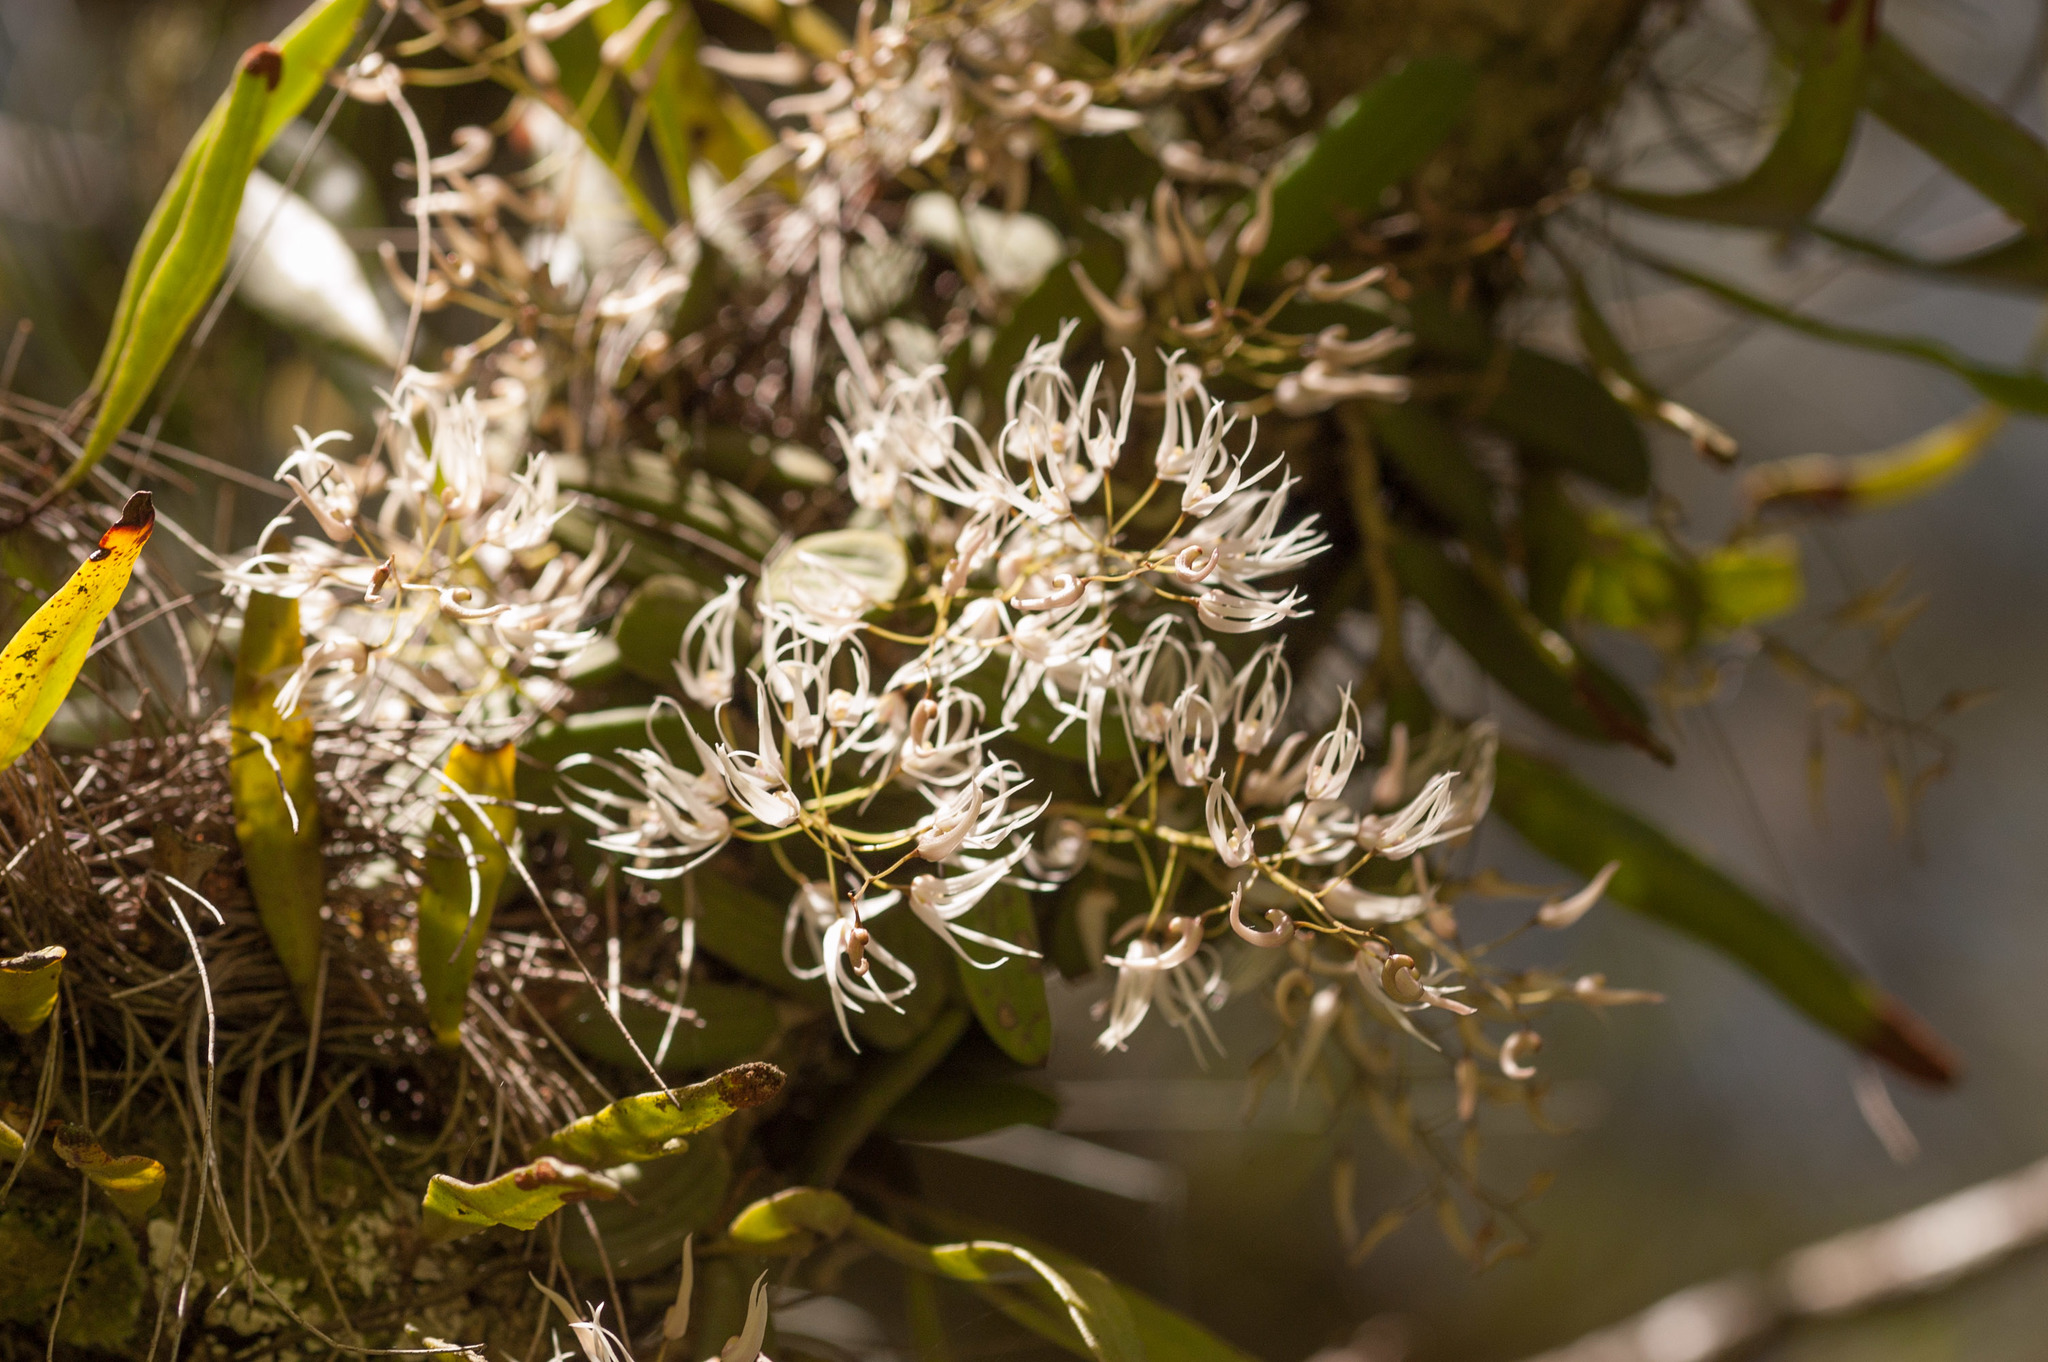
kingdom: Plantae
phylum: Tracheophyta
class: Liliopsida
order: Asparagales
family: Orchidaceae
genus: Dendrobium
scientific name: Dendrobium linguiforme
